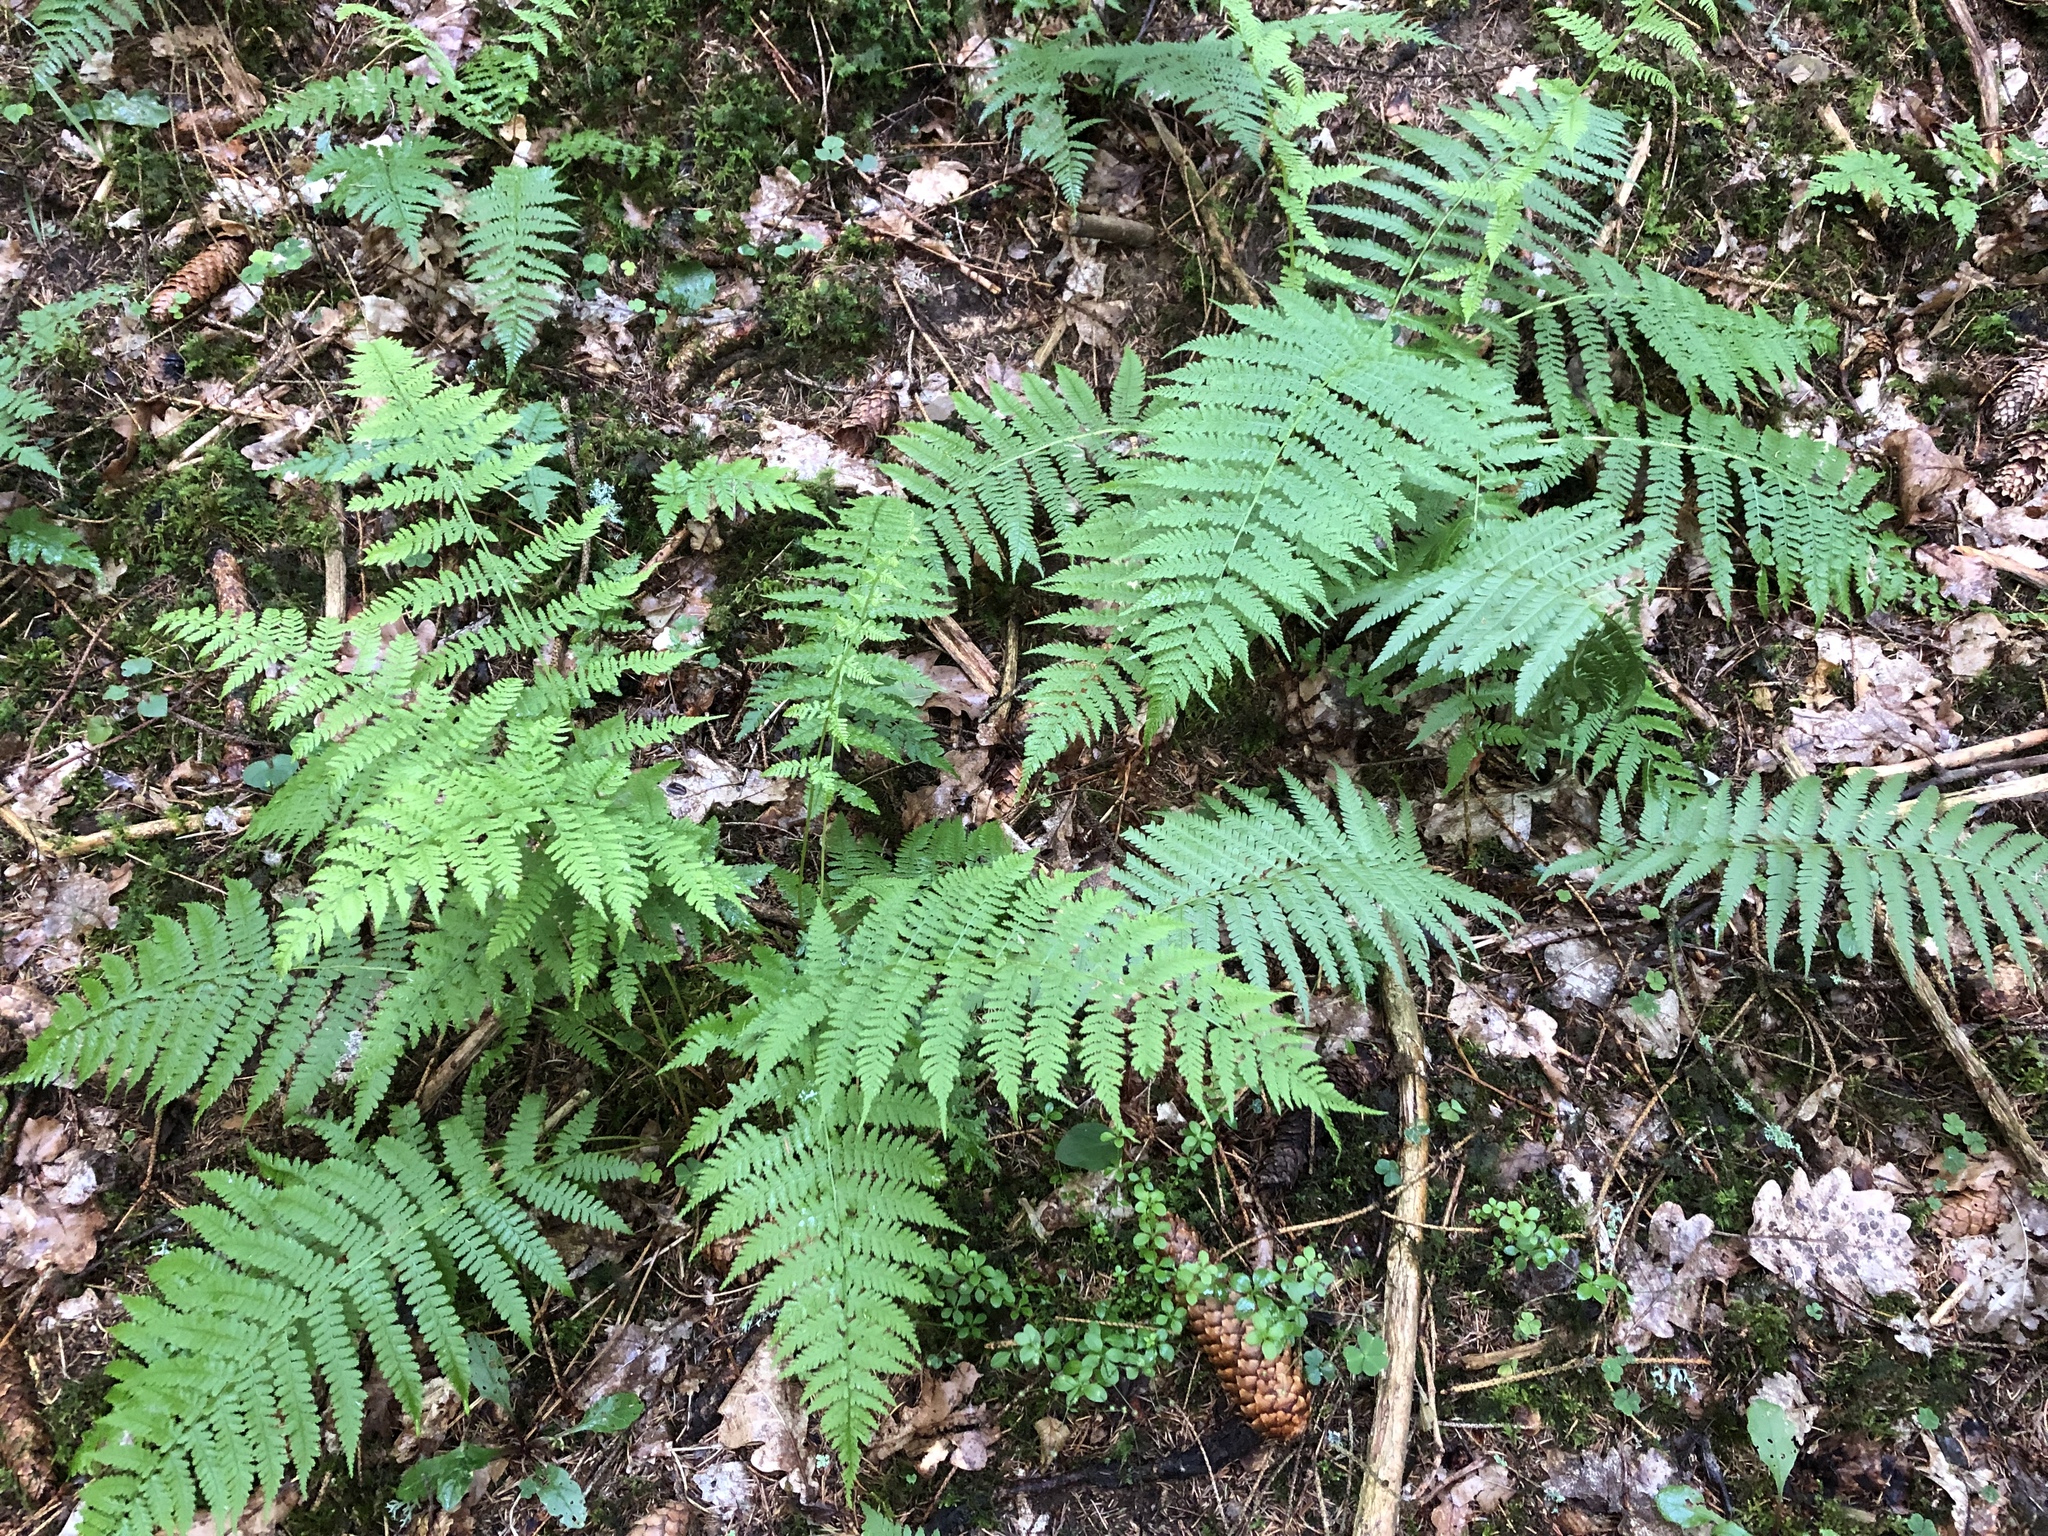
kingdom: Plantae
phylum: Tracheophyta
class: Polypodiopsida
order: Polypodiales
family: Athyriaceae
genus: Athyrium
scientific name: Athyrium filix-femina
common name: Lady fern
